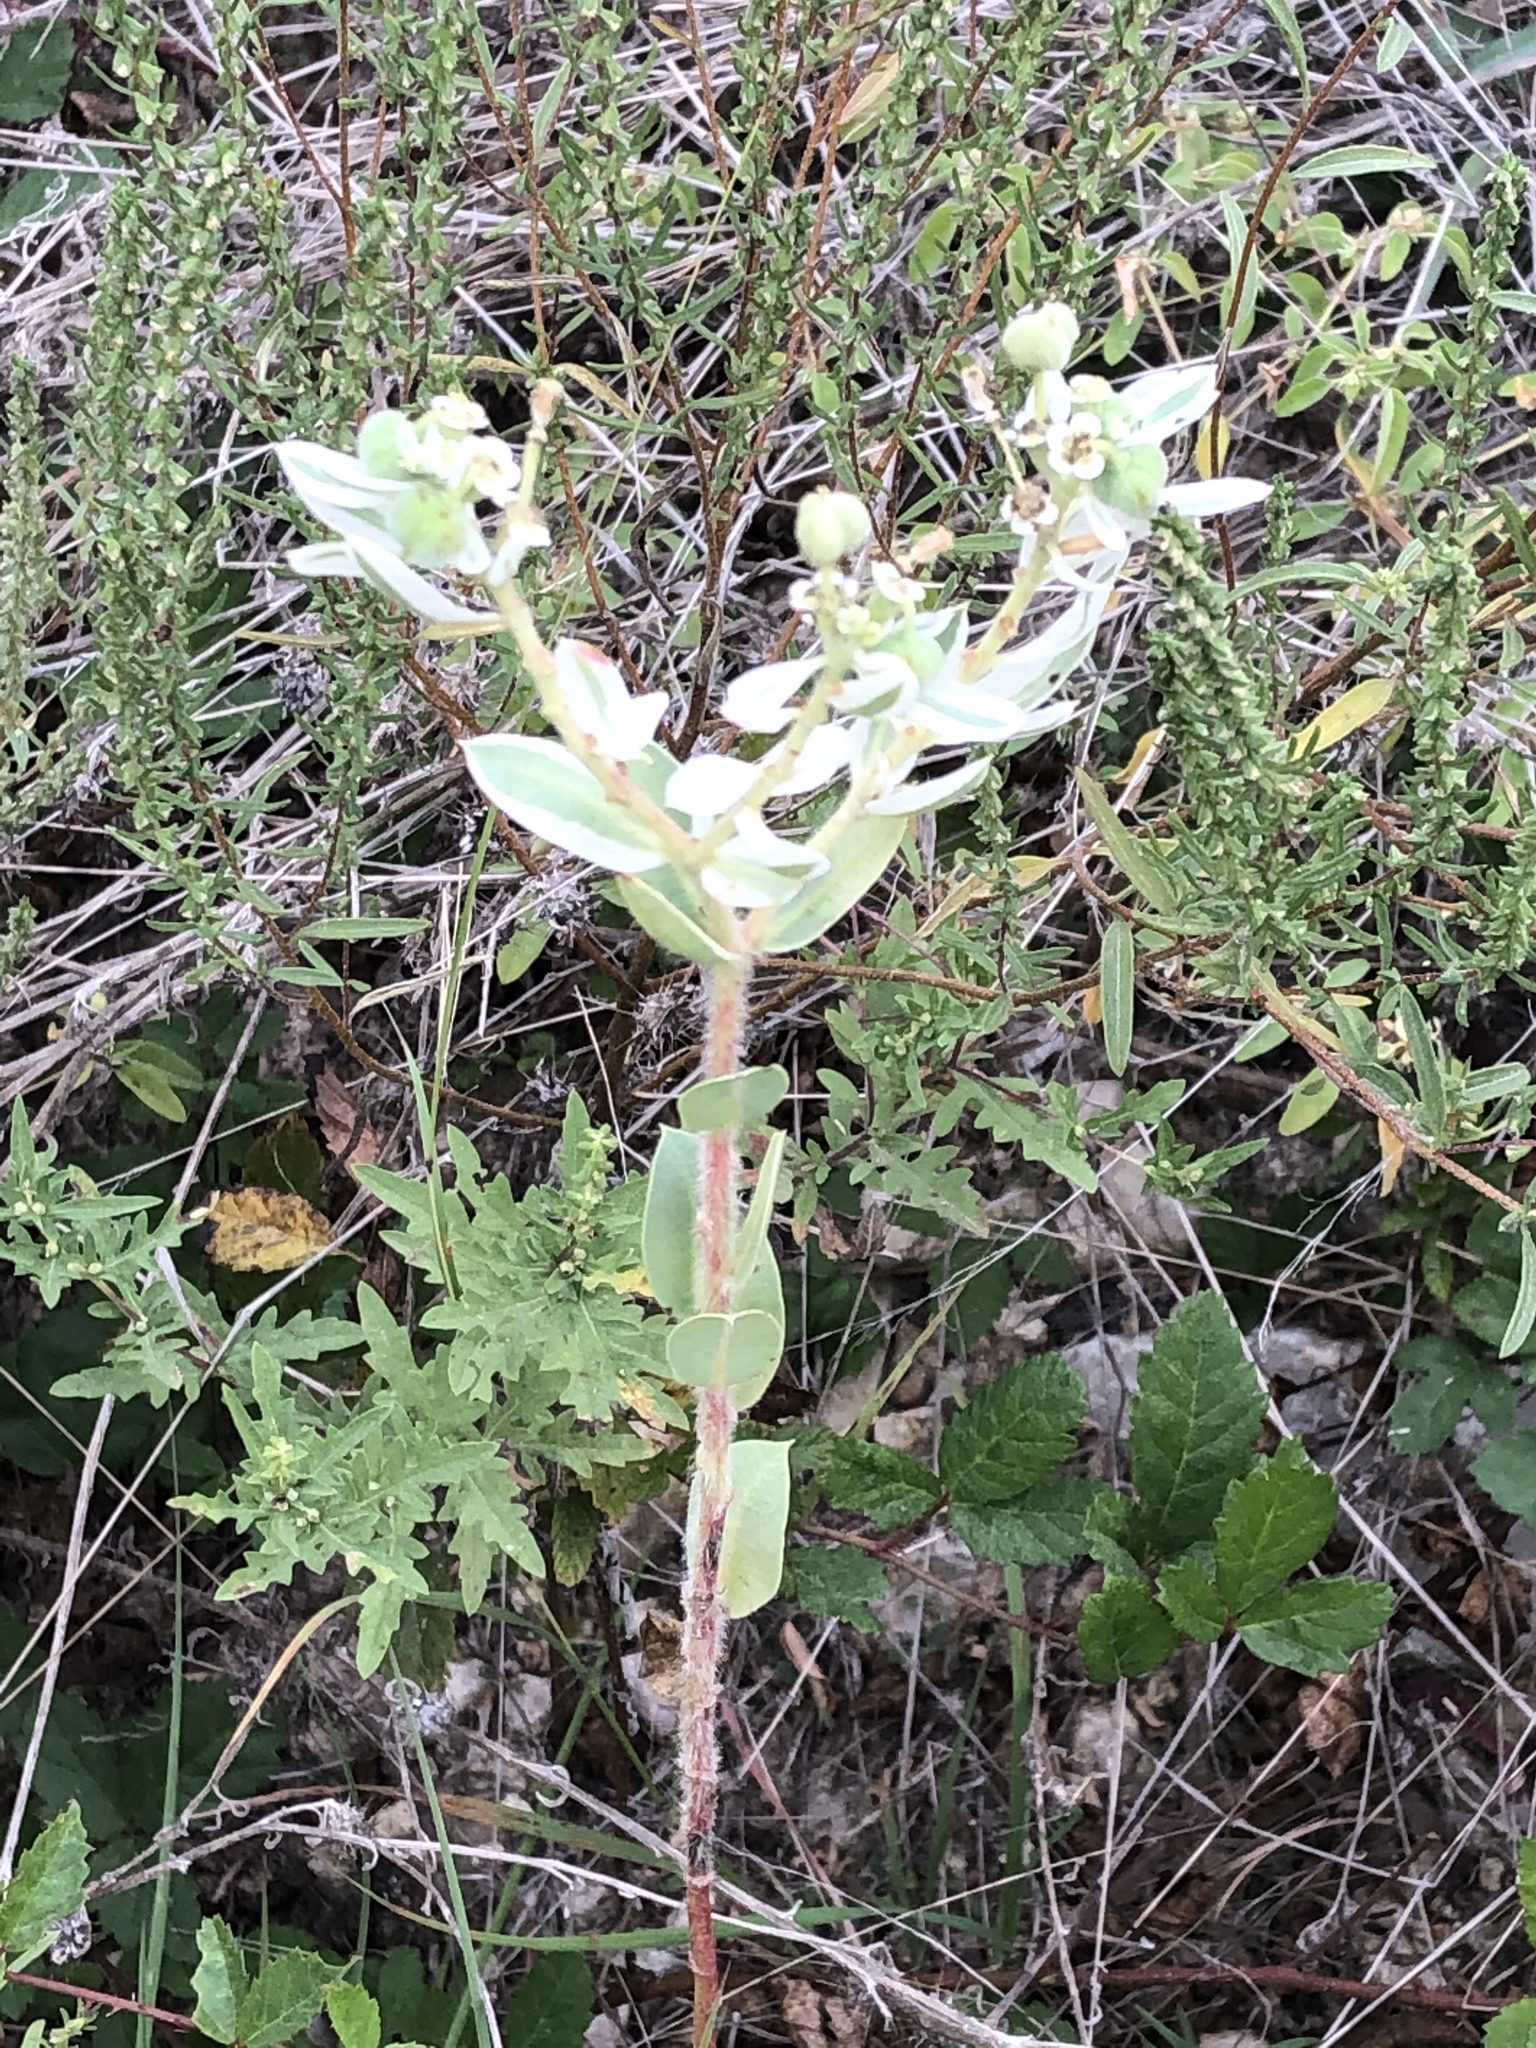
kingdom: Plantae
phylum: Tracheophyta
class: Magnoliopsida
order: Malpighiales
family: Euphorbiaceae
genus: Euphorbia
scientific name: Euphorbia marginata
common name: Ghostweed
